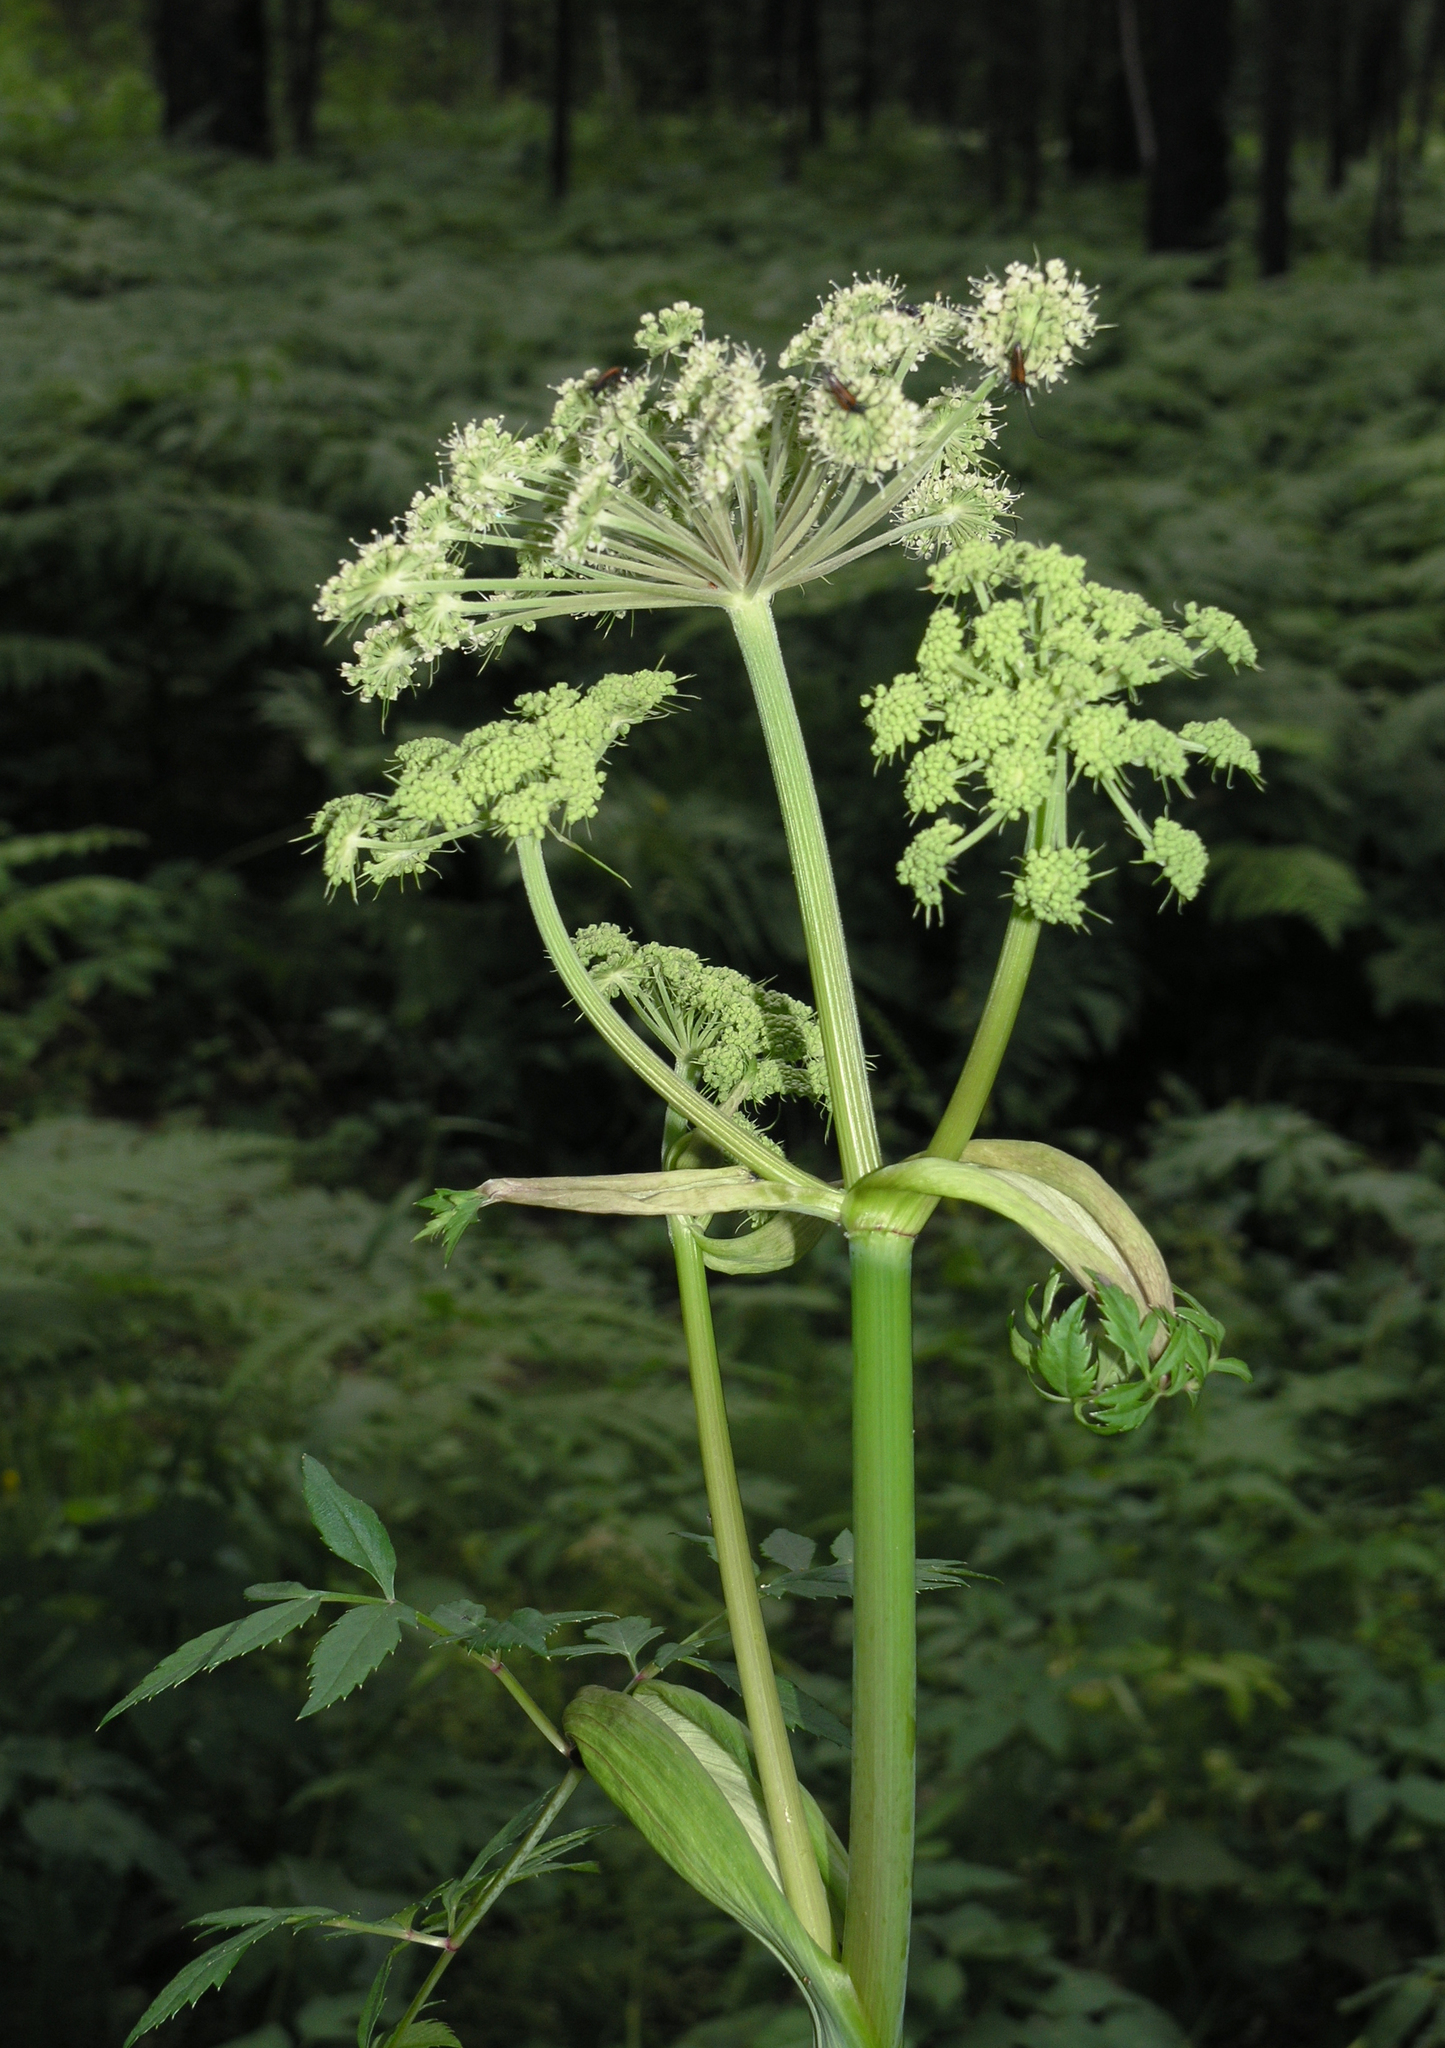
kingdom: Plantae
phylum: Tracheophyta
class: Magnoliopsida
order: Apiales
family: Apiaceae
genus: Angelica
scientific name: Angelica sylvestris
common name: Wild angelica
